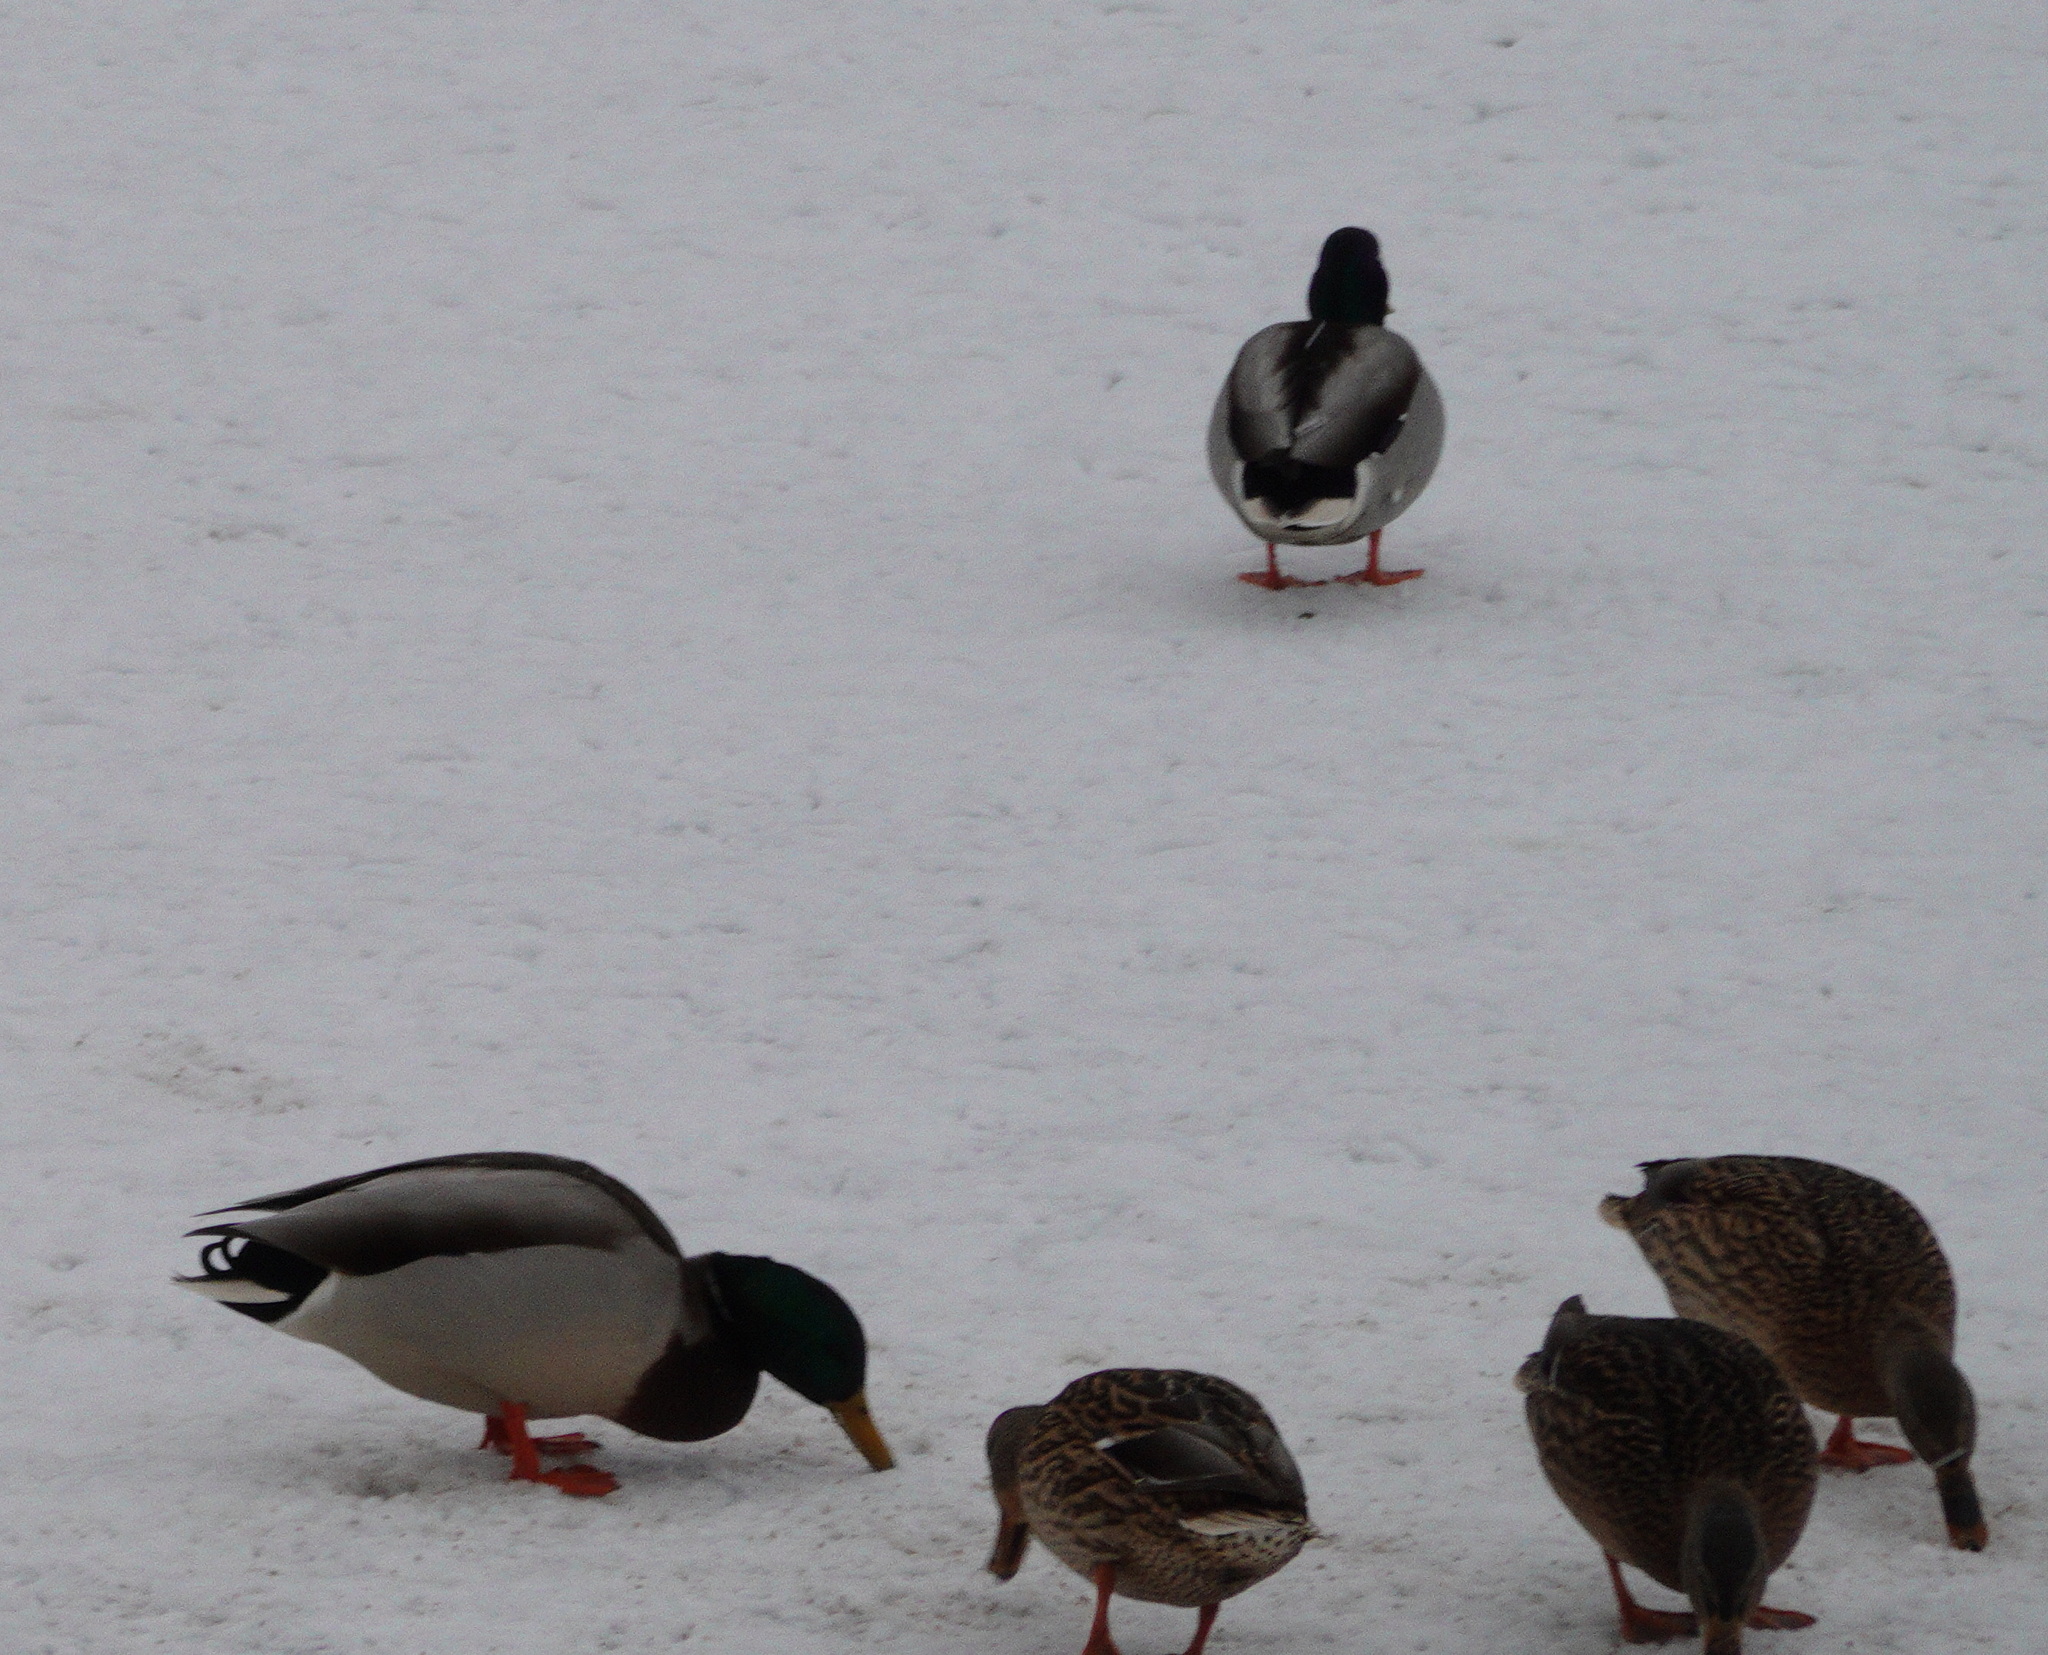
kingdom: Animalia
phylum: Chordata
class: Aves
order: Anseriformes
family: Anatidae
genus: Anas
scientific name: Anas platyrhynchos
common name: Mallard
